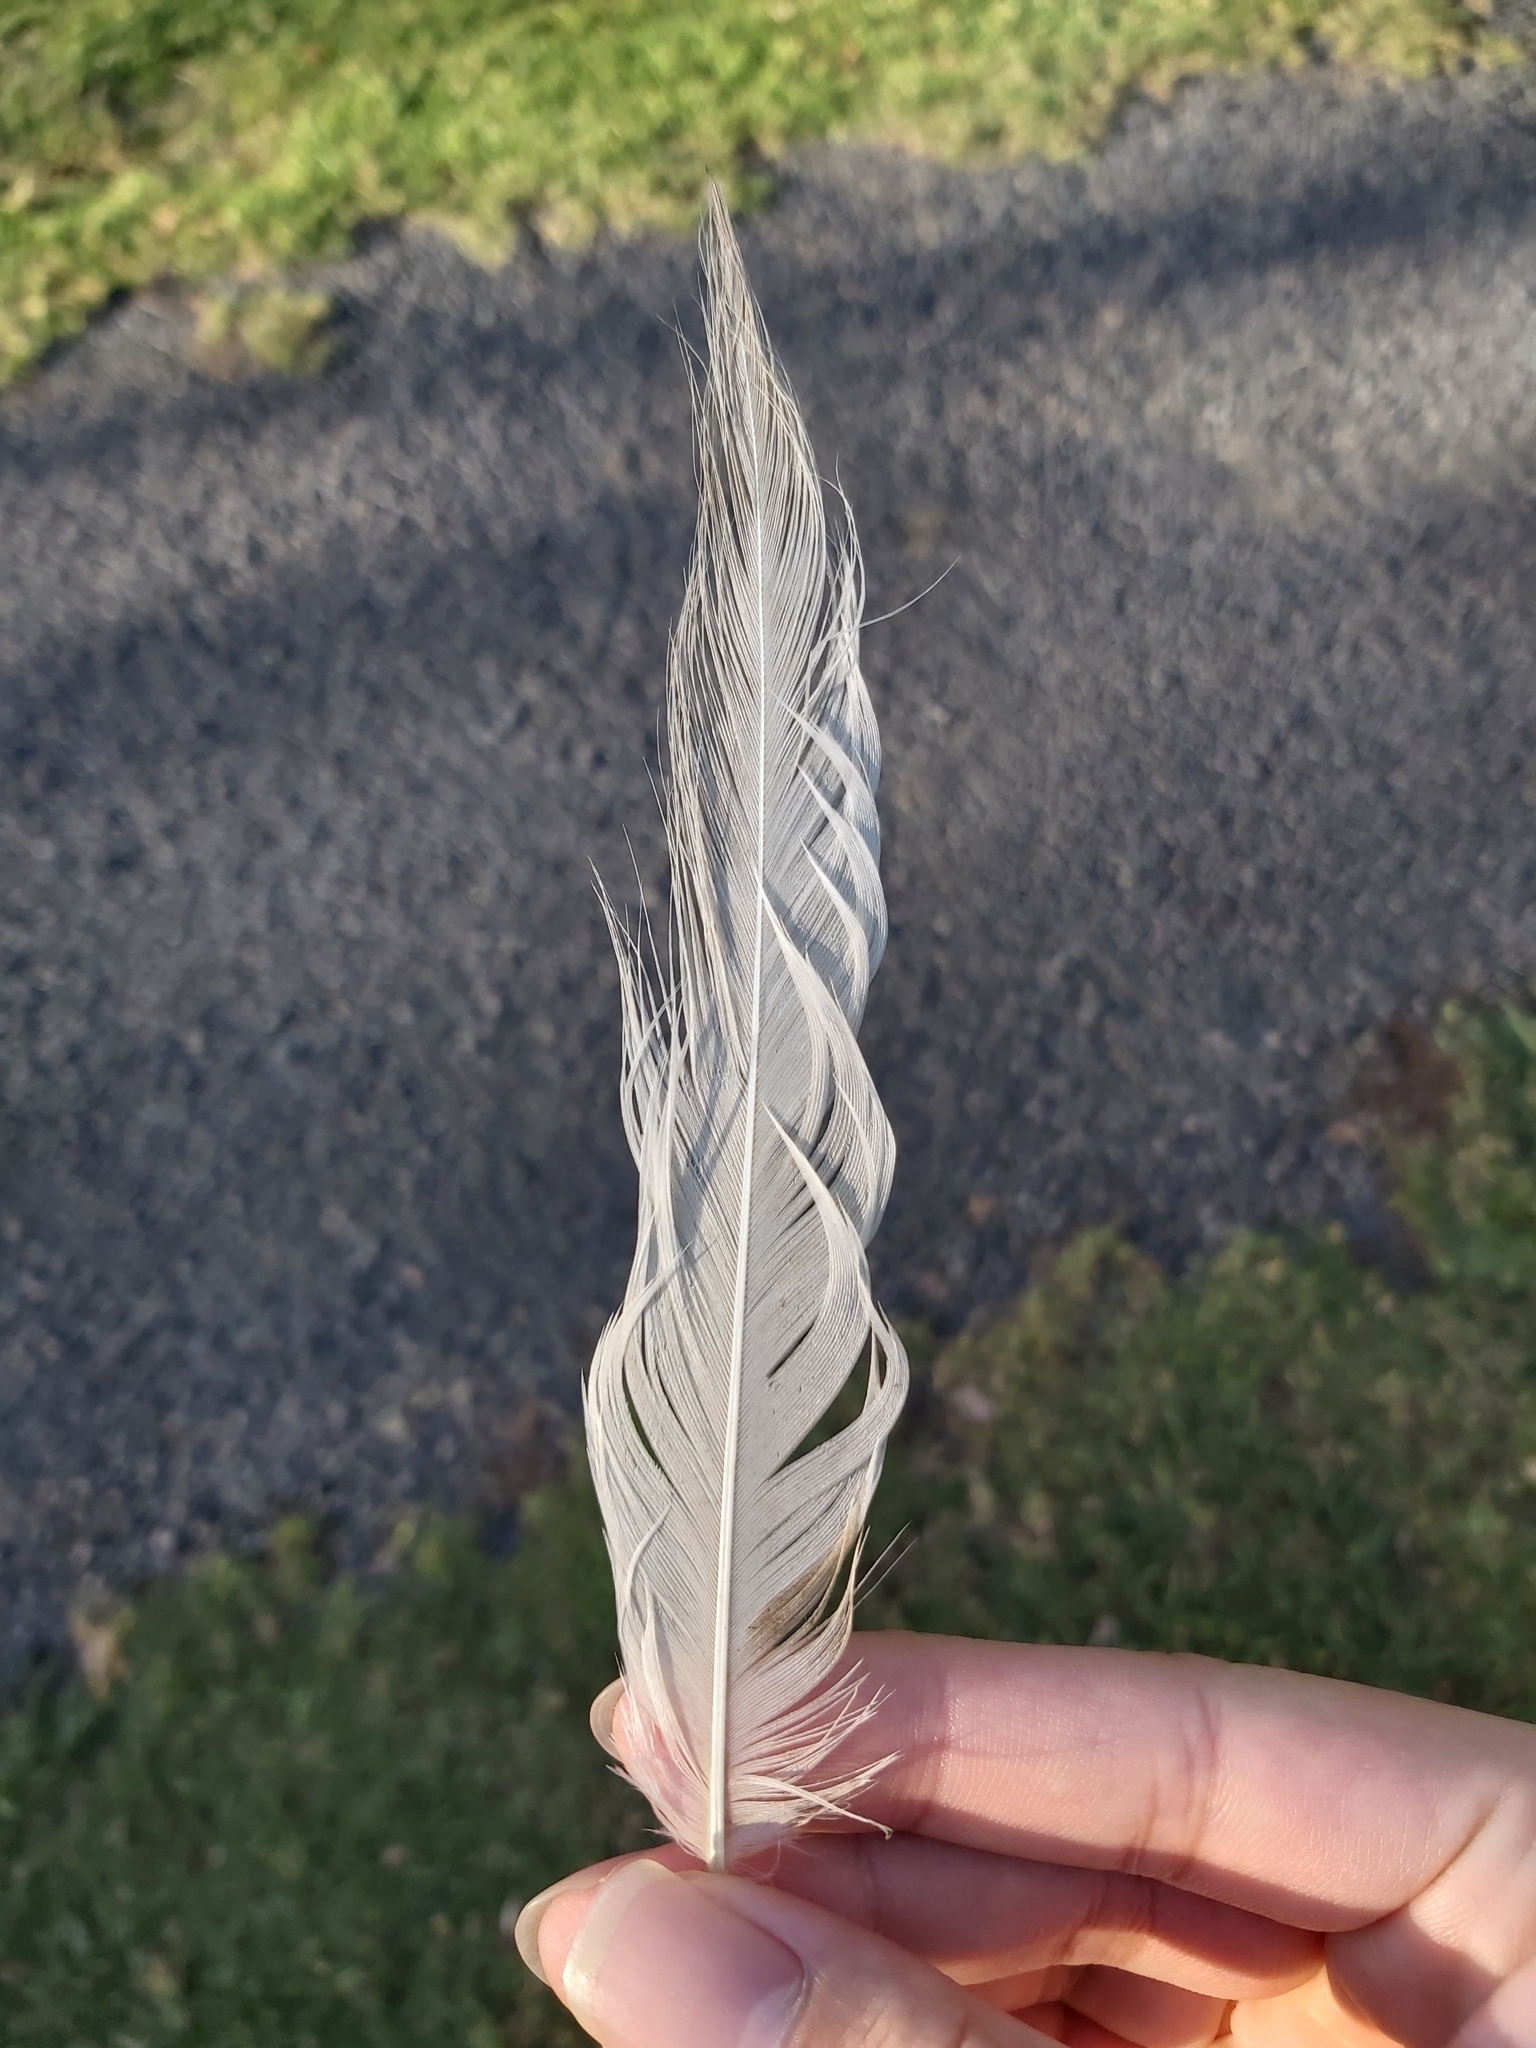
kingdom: Animalia
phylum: Chordata
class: Aves
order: Pelecaniformes
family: Threskiornithidae
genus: Threskiornis
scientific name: Threskiornis molucca
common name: Australian white ibis
